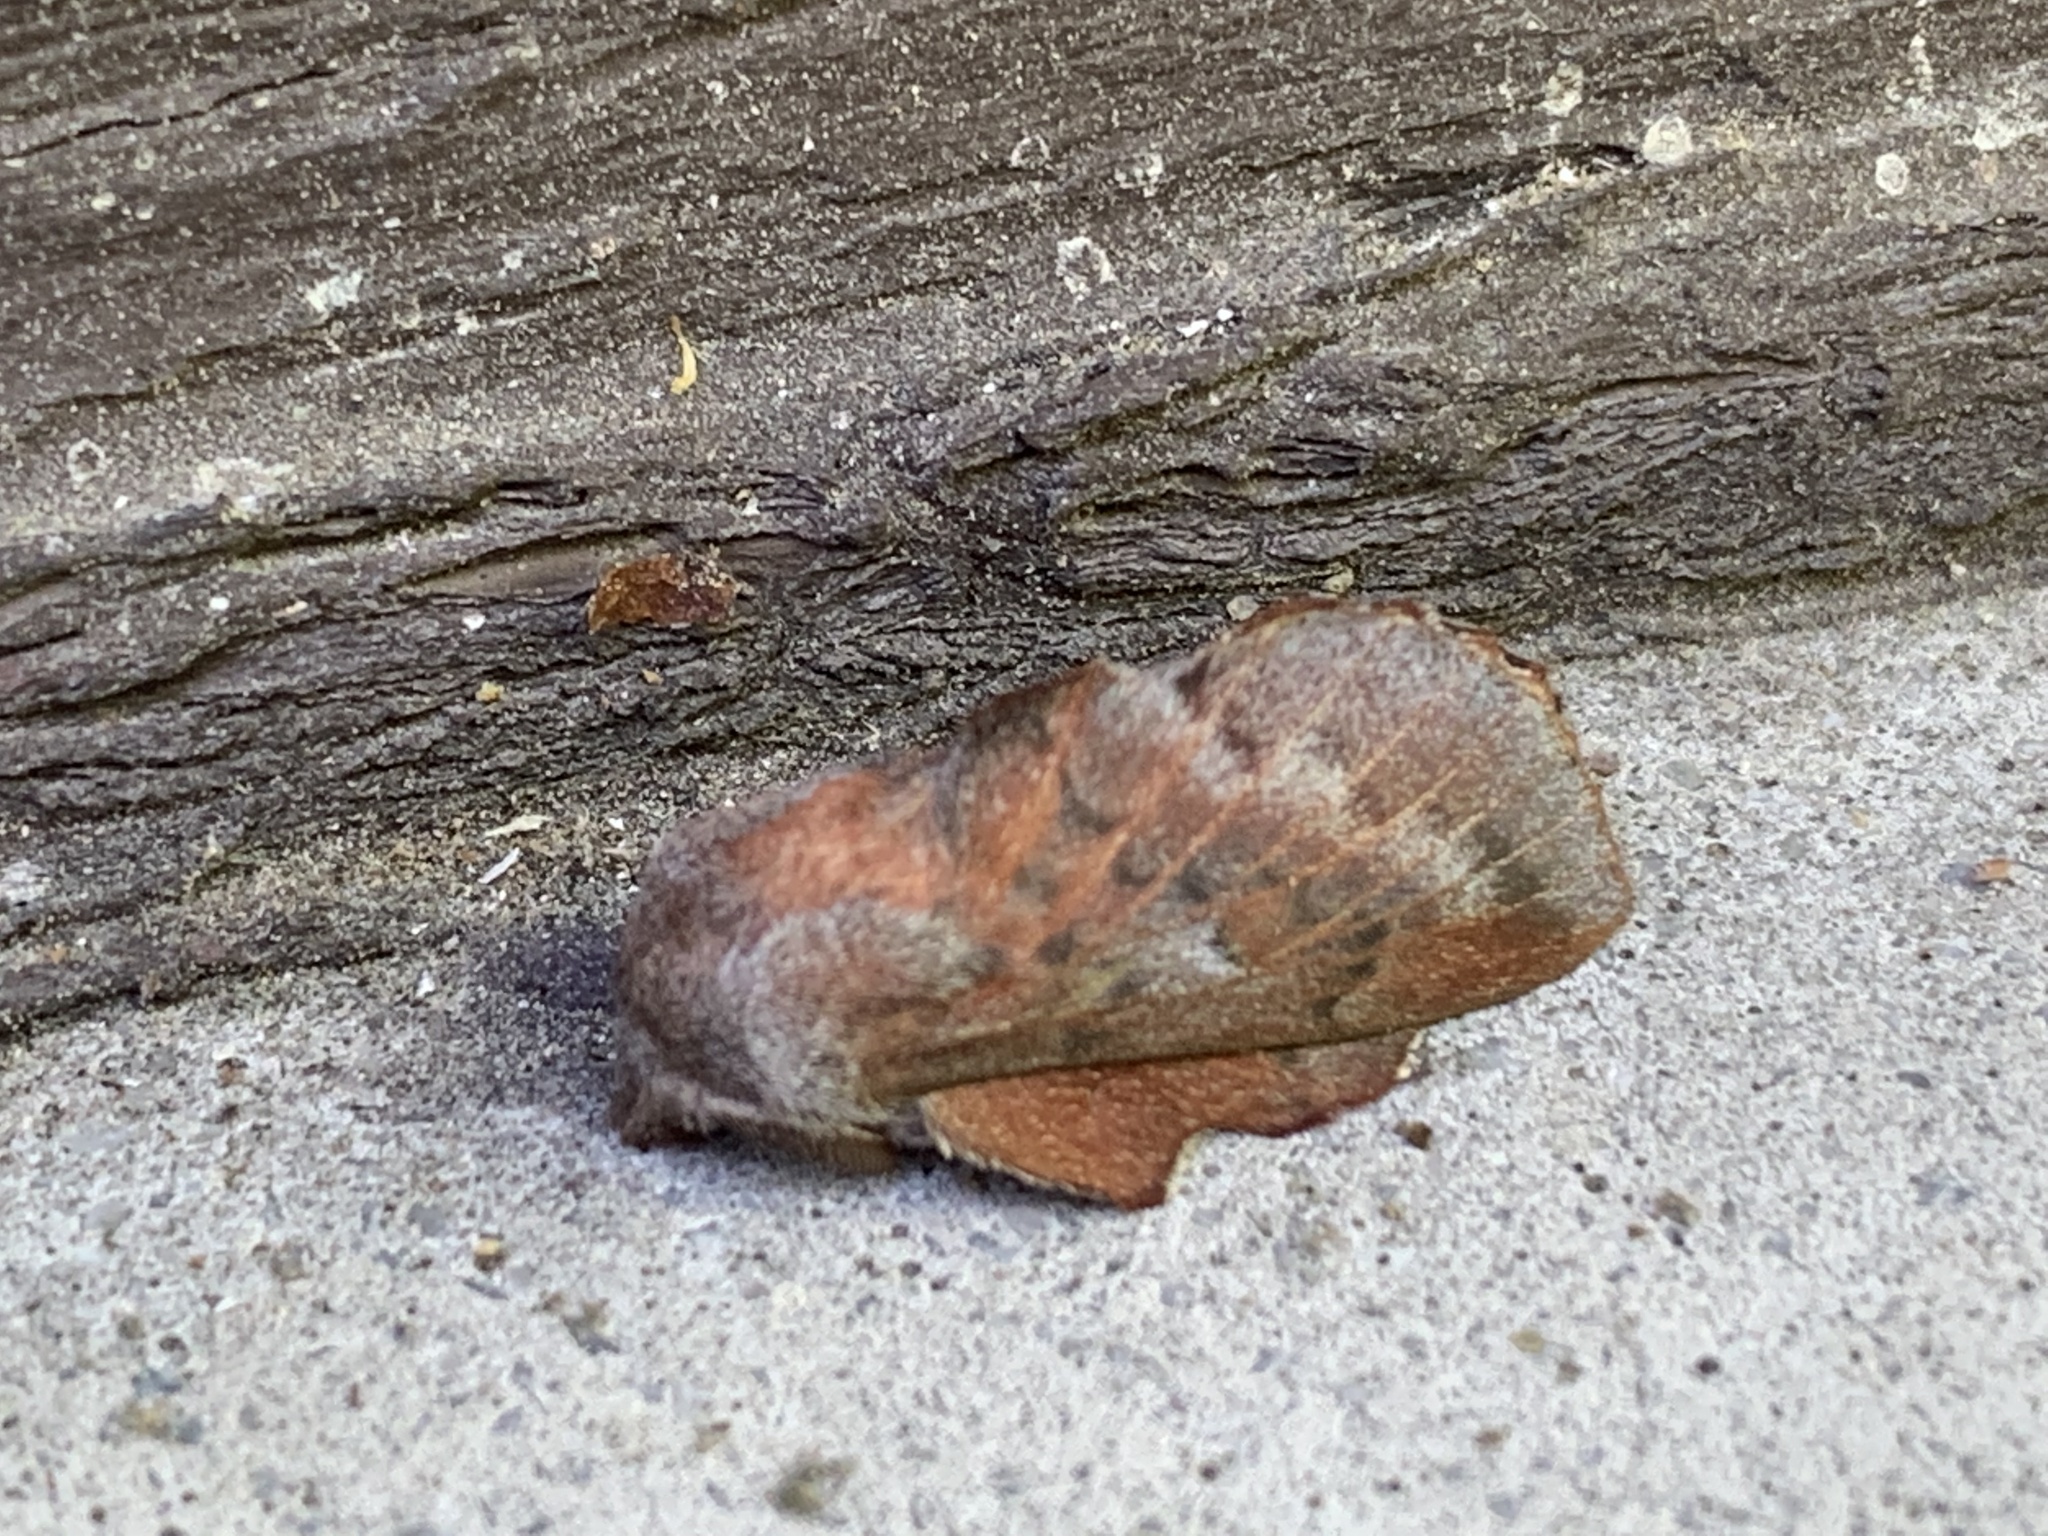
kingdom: Animalia
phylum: Arthropoda
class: Insecta
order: Lepidoptera
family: Lasiocampidae
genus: Phyllodesma
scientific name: Phyllodesma americana
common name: American lappet moth
